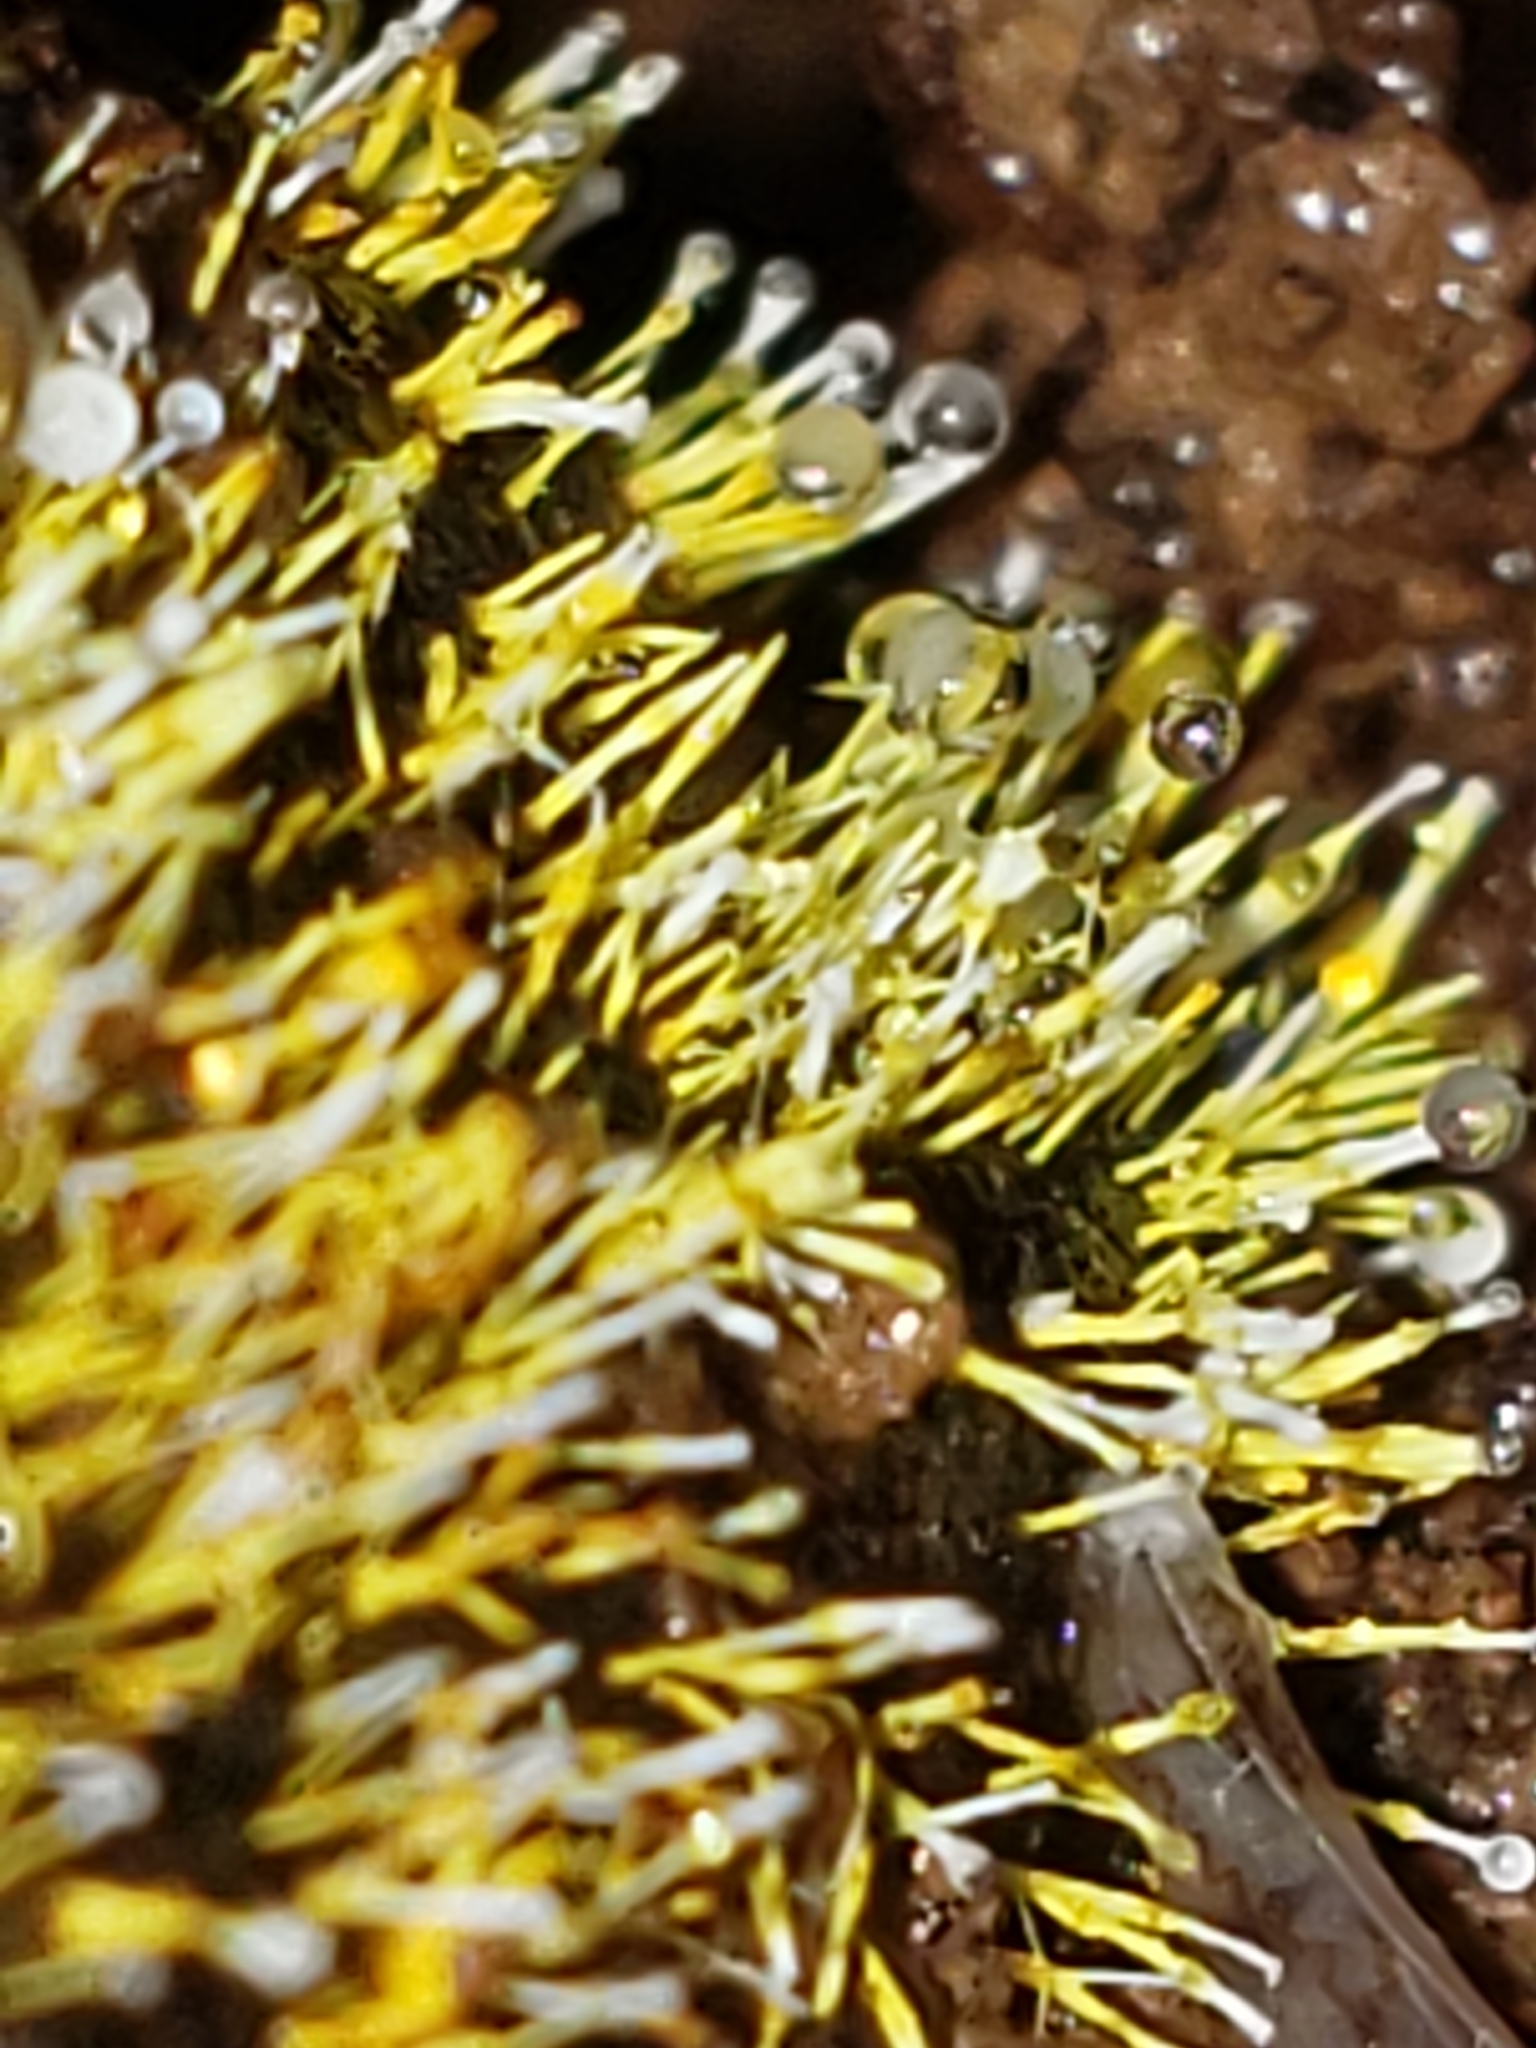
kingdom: Fungi
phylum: Ascomycota
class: Sordariomycetes
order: Hypocreales
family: Hypocreaceae
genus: Sphaerostilbella
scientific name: Sphaerostilbella aurifila
